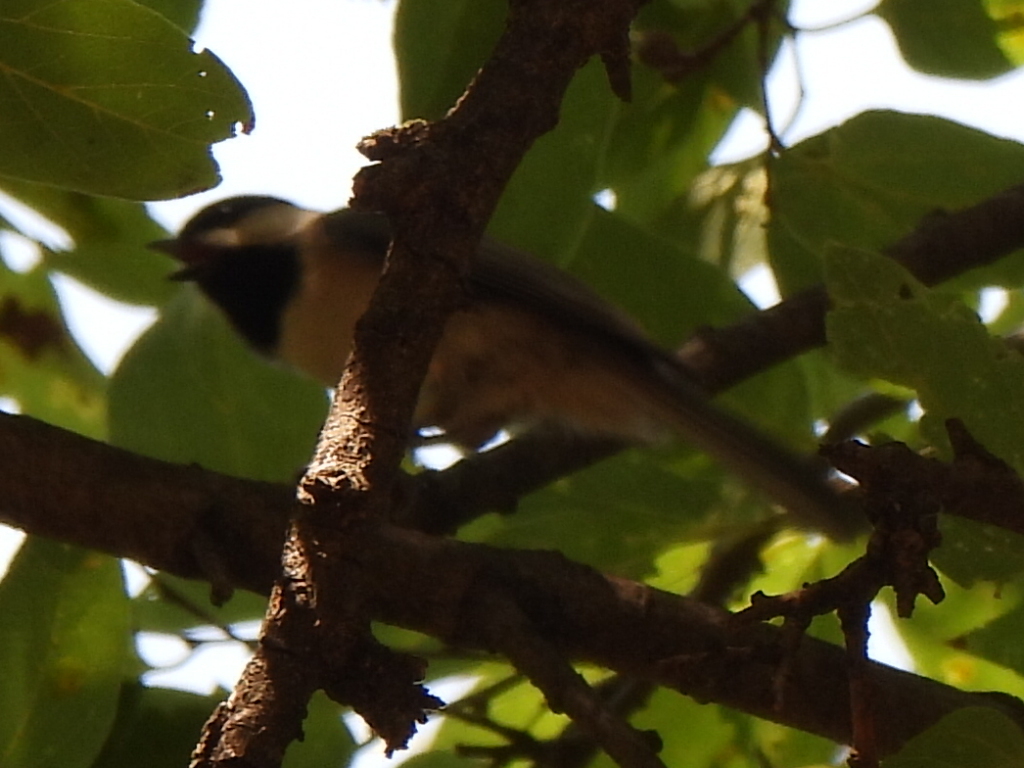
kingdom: Animalia
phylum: Chordata
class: Aves
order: Passeriformes
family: Paridae
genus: Poecile
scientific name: Poecile carolinensis
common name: Carolina chickadee
